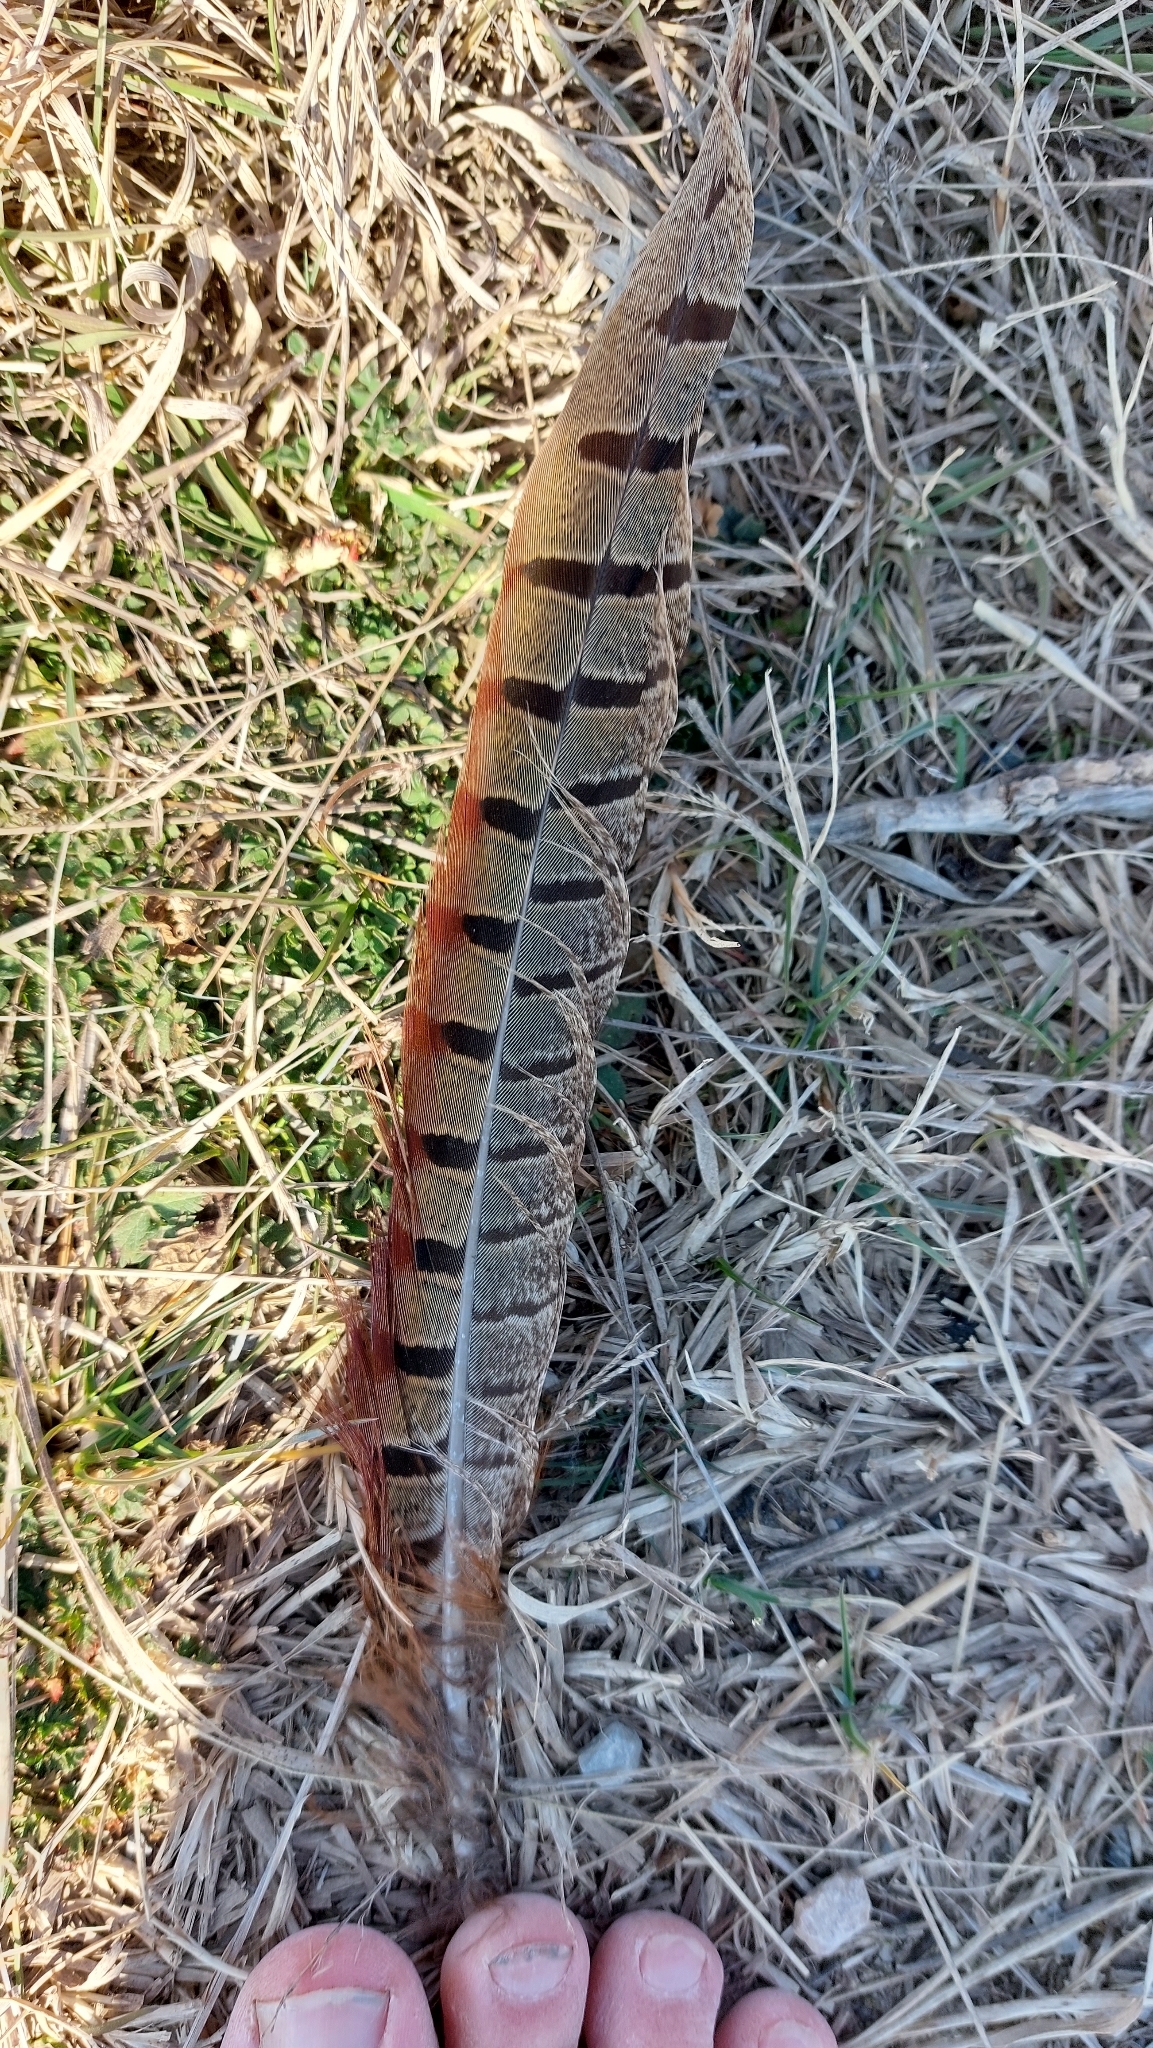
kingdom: Animalia
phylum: Chordata
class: Aves
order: Galliformes
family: Phasianidae
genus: Phasianus
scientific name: Phasianus colchicus
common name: Common pheasant
